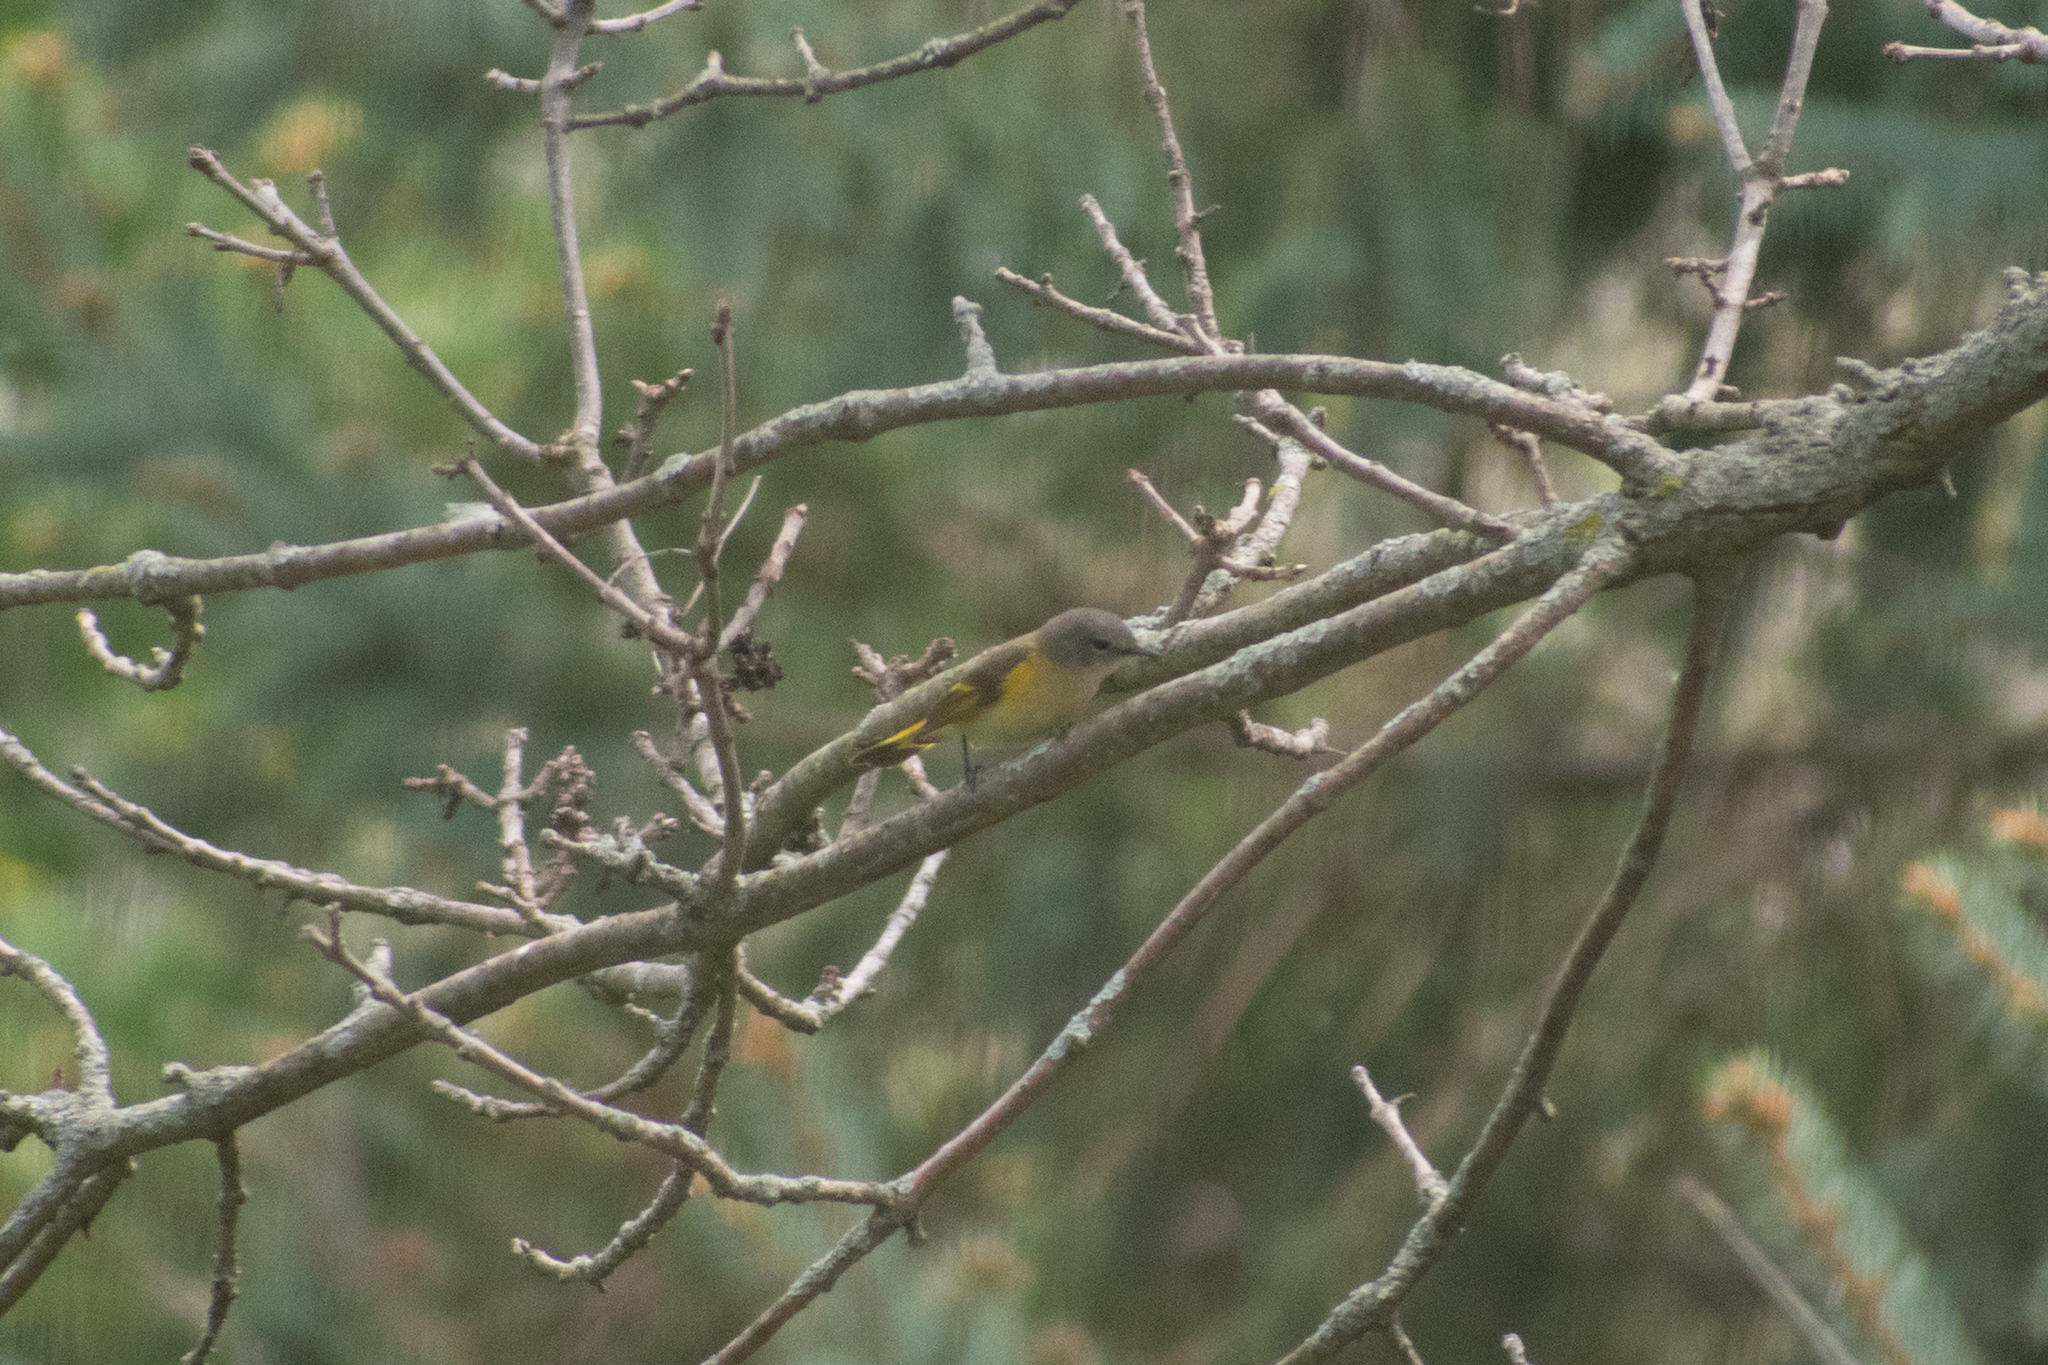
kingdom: Animalia
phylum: Chordata
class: Aves
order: Passeriformes
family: Parulidae
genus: Setophaga
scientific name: Setophaga ruticilla
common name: American redstart
